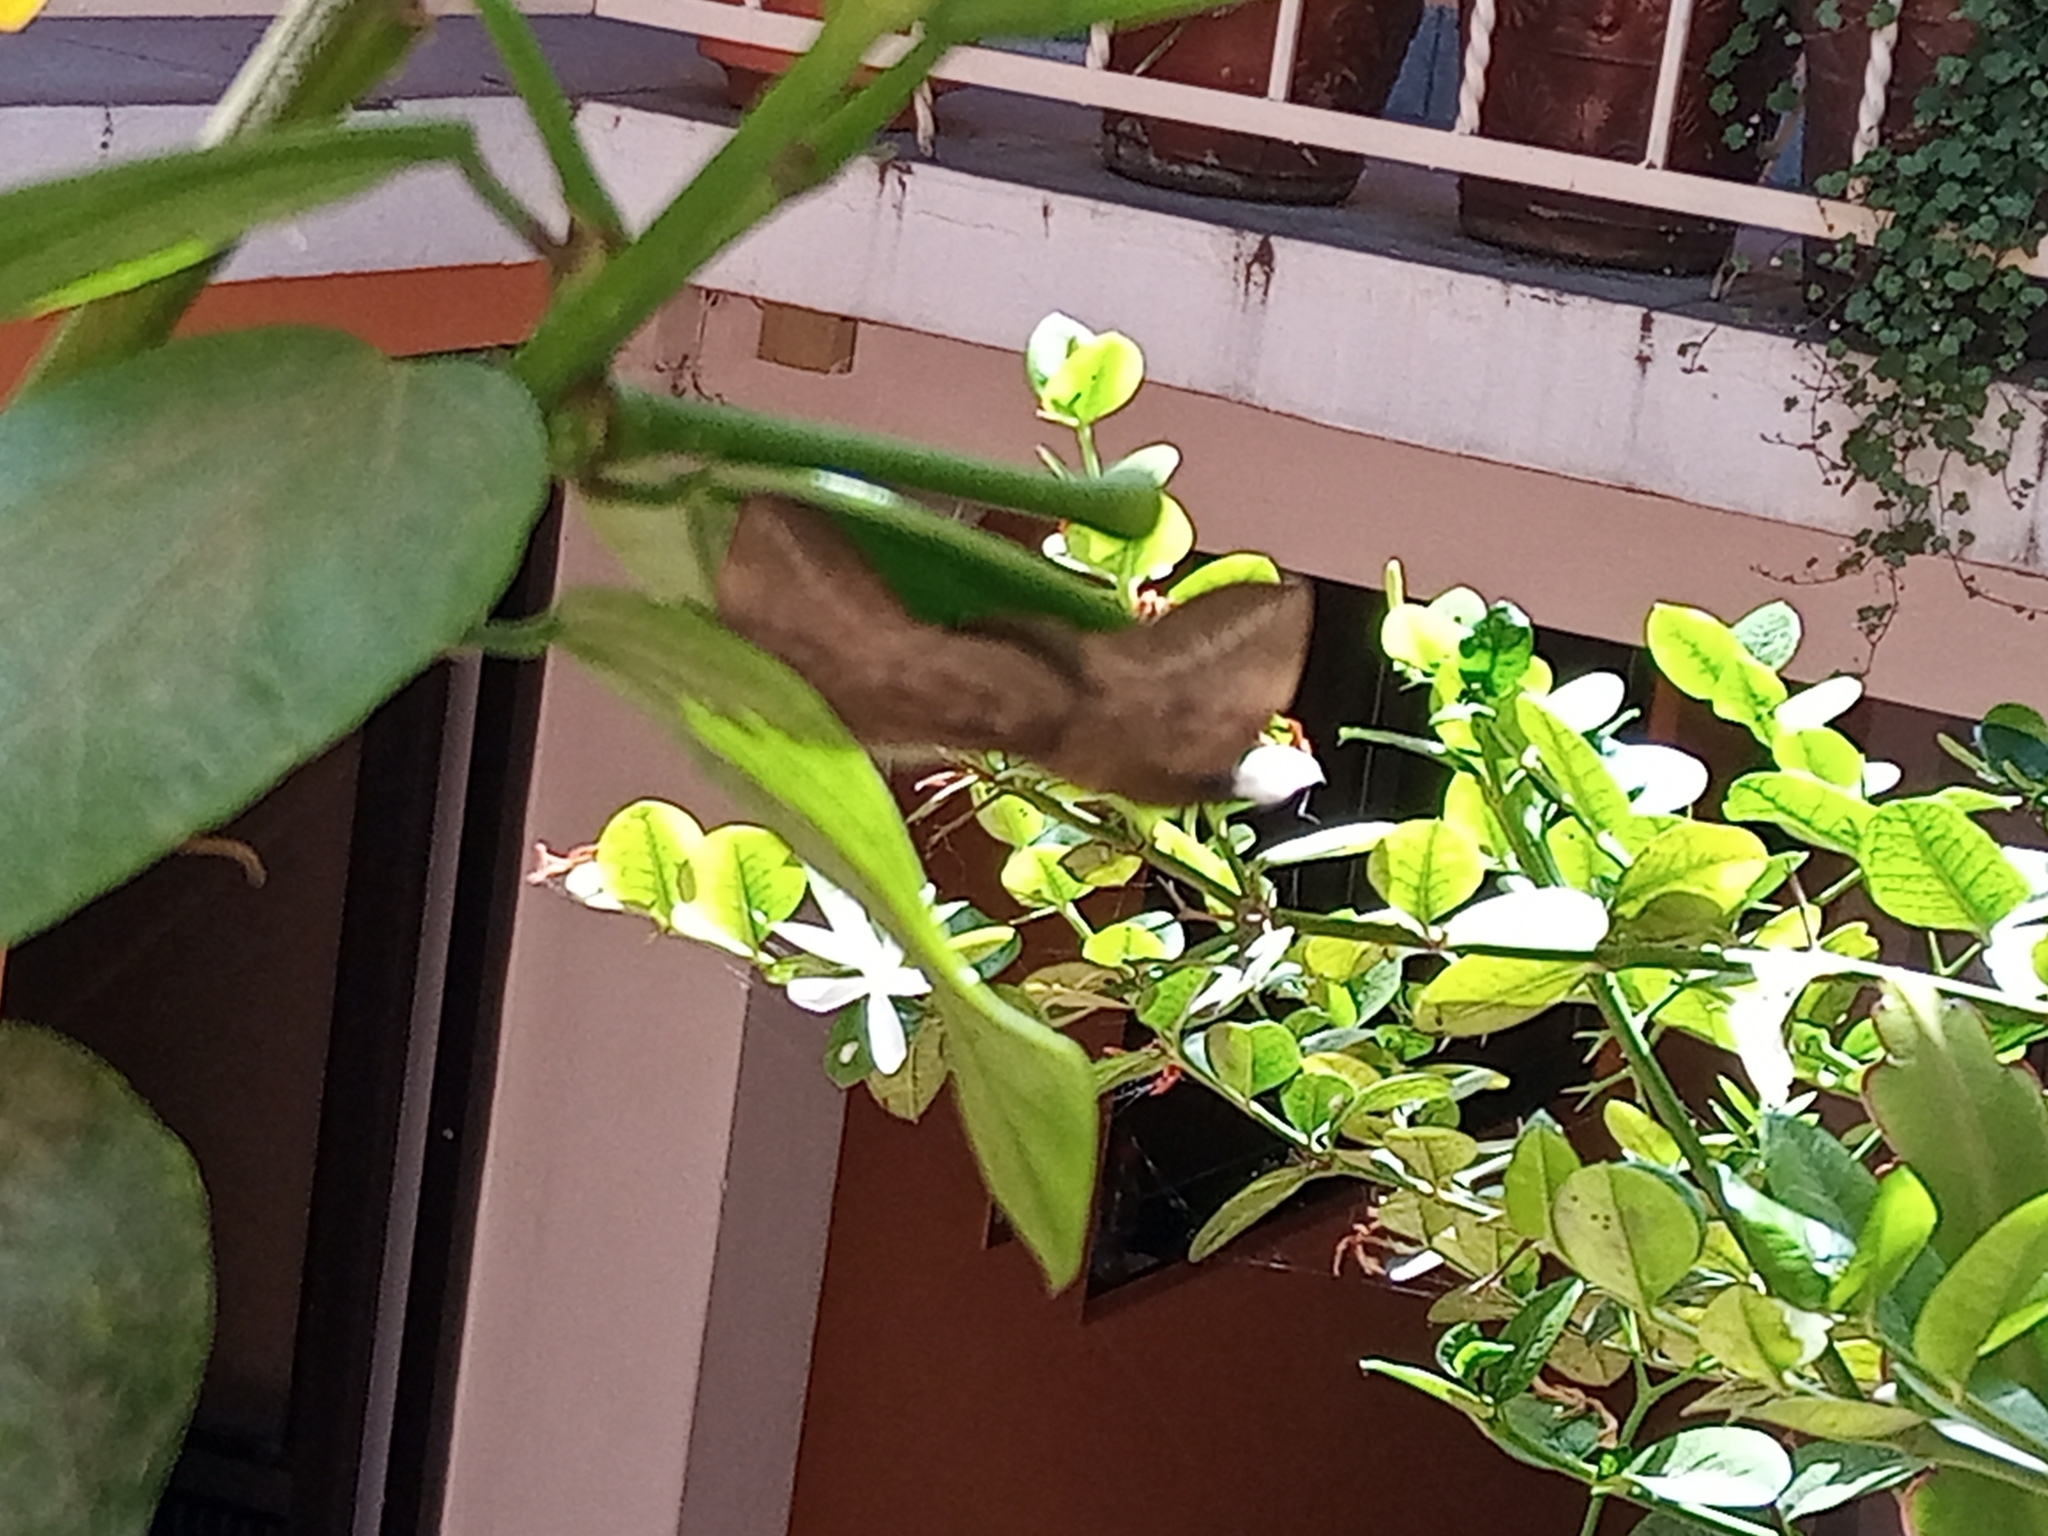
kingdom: Animalia
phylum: Arthropoda
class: Insecta
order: Lepidoptera
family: Hesperiidae
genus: Achlyodes
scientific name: Achlyodes pallida
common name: Pale sicklewing
